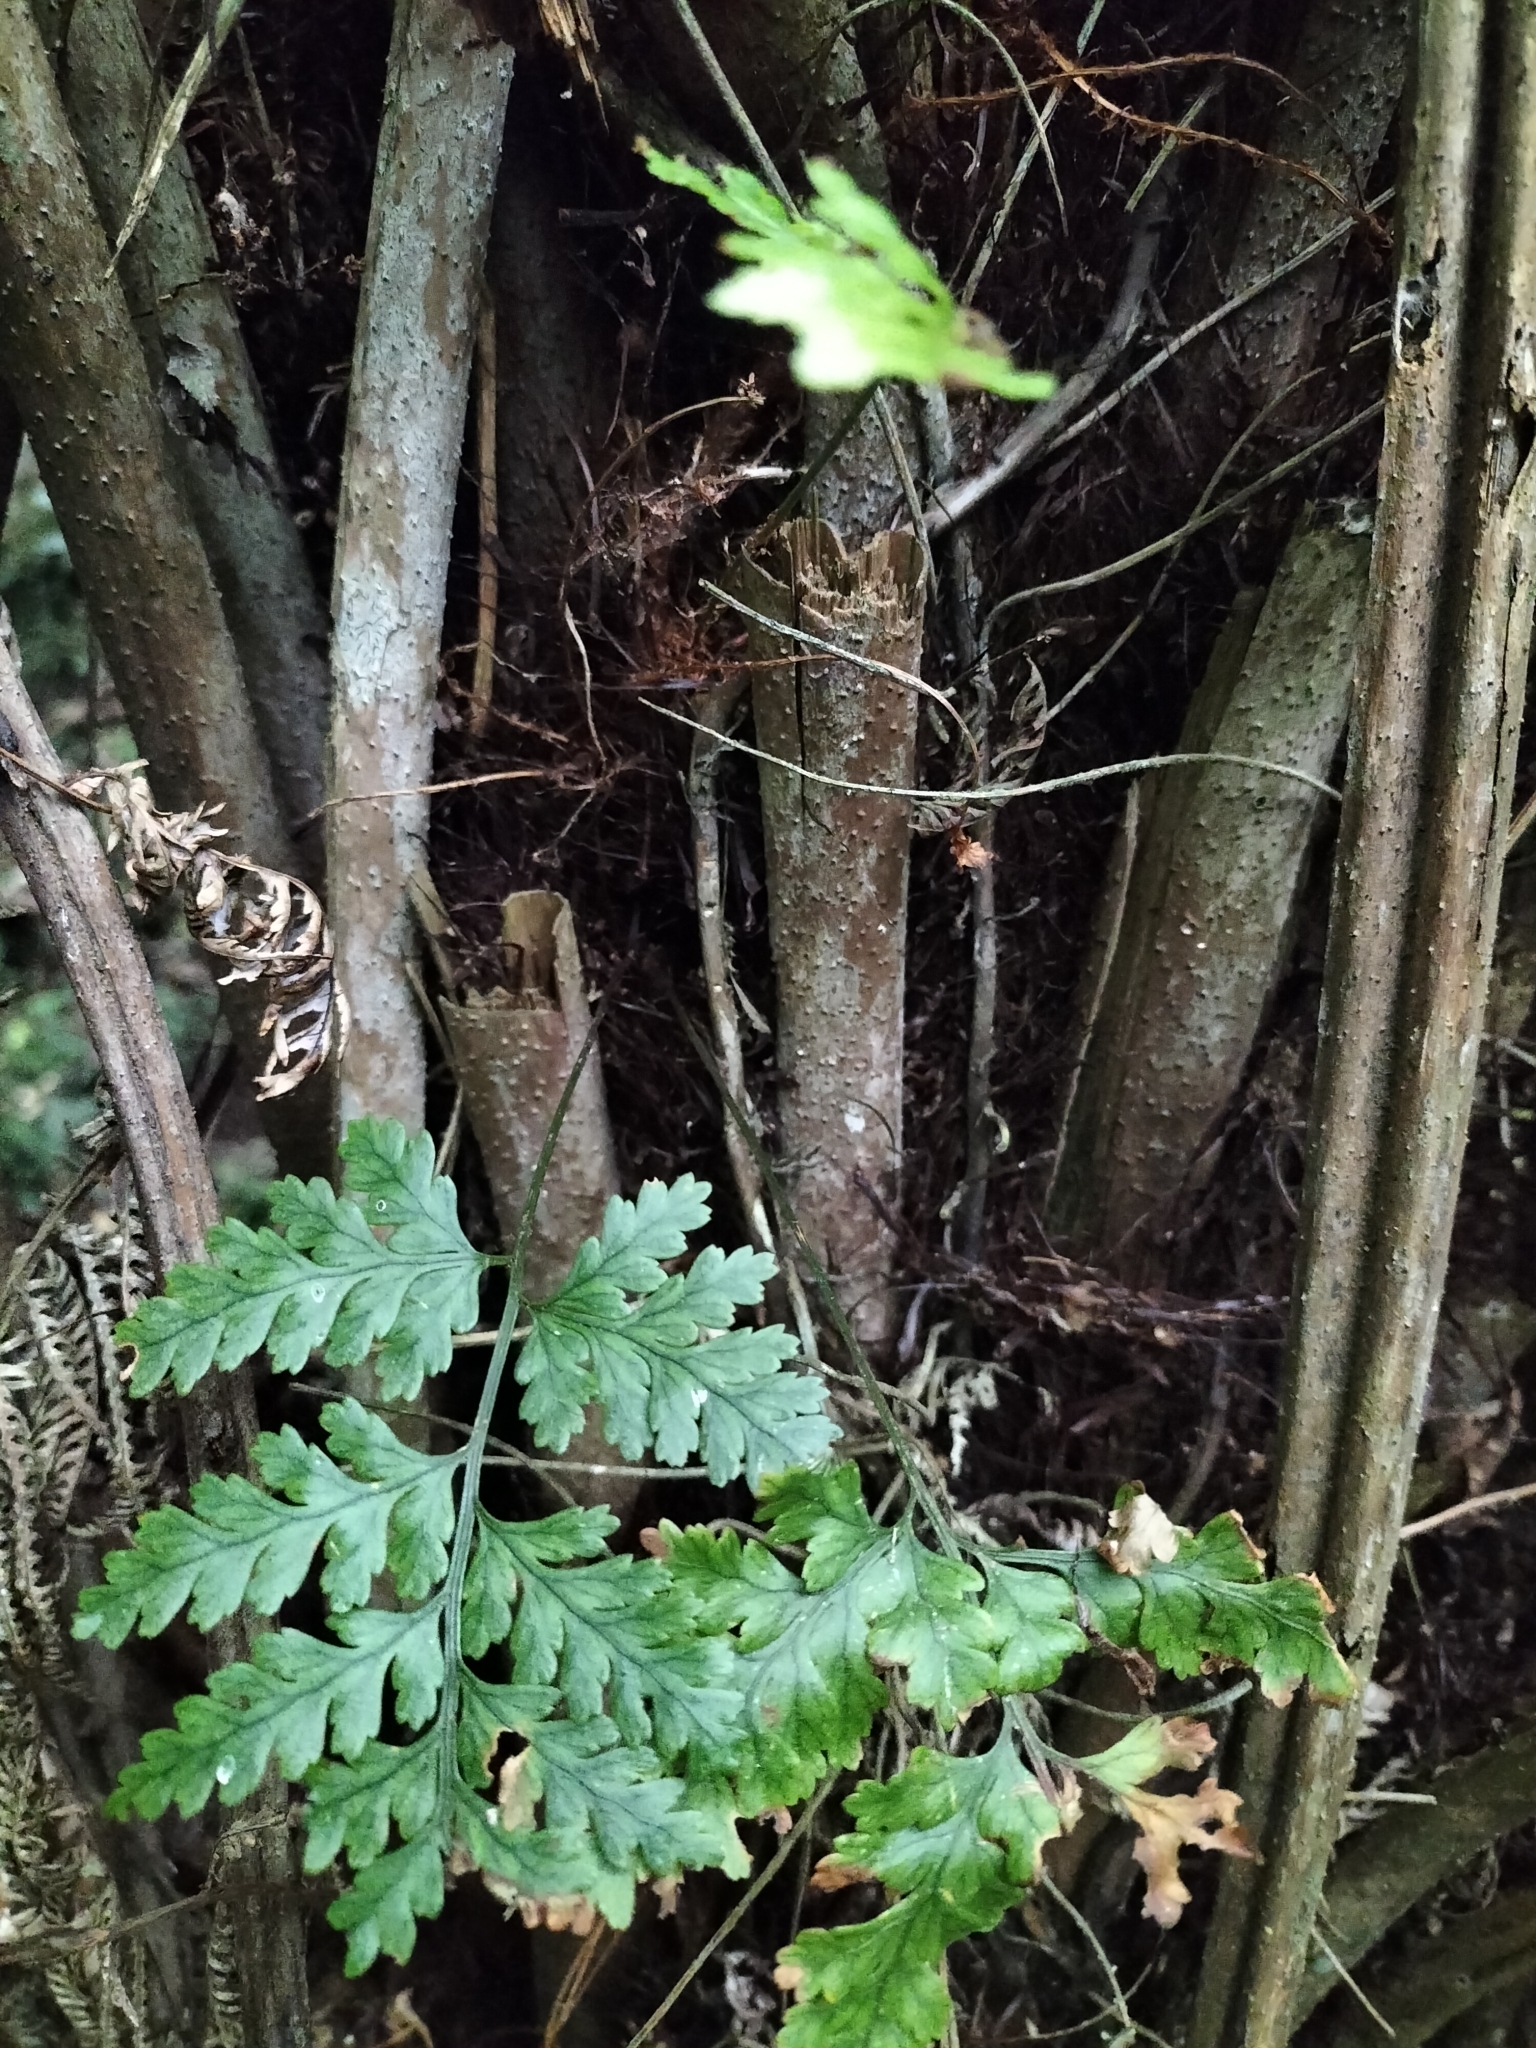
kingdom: Plantae
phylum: Tracheophyta
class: Polypodiopsida
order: Polypodiales
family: Dryopteridaceae
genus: Rumohra
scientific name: Rumohra adiantiformis
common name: Leather fern
